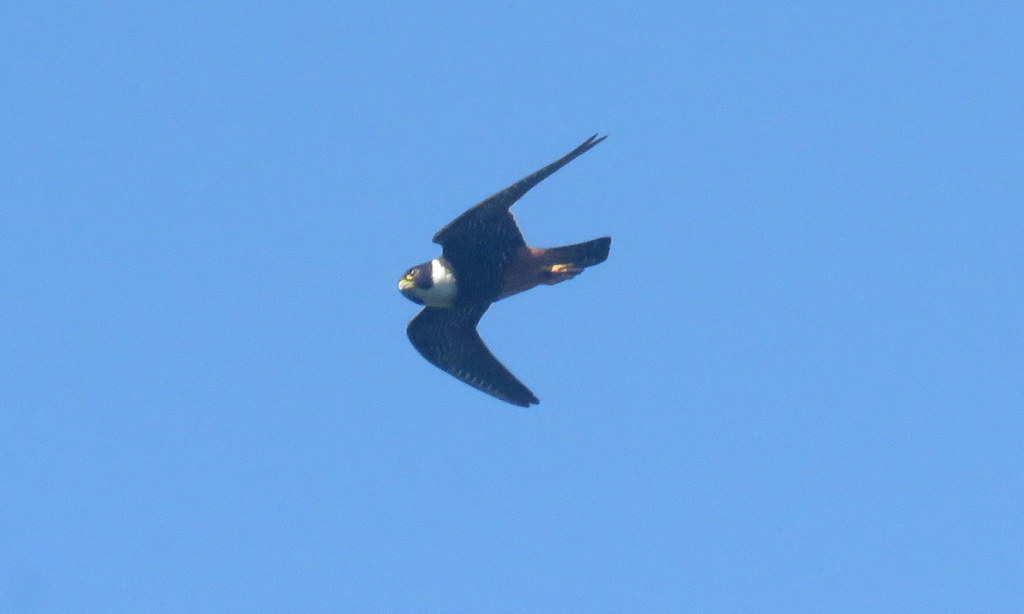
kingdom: Animalia
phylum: Chordata
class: Aves
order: Falconiformes
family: Falconidae
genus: Falco
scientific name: Falco rufigularis
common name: Bat falcon
